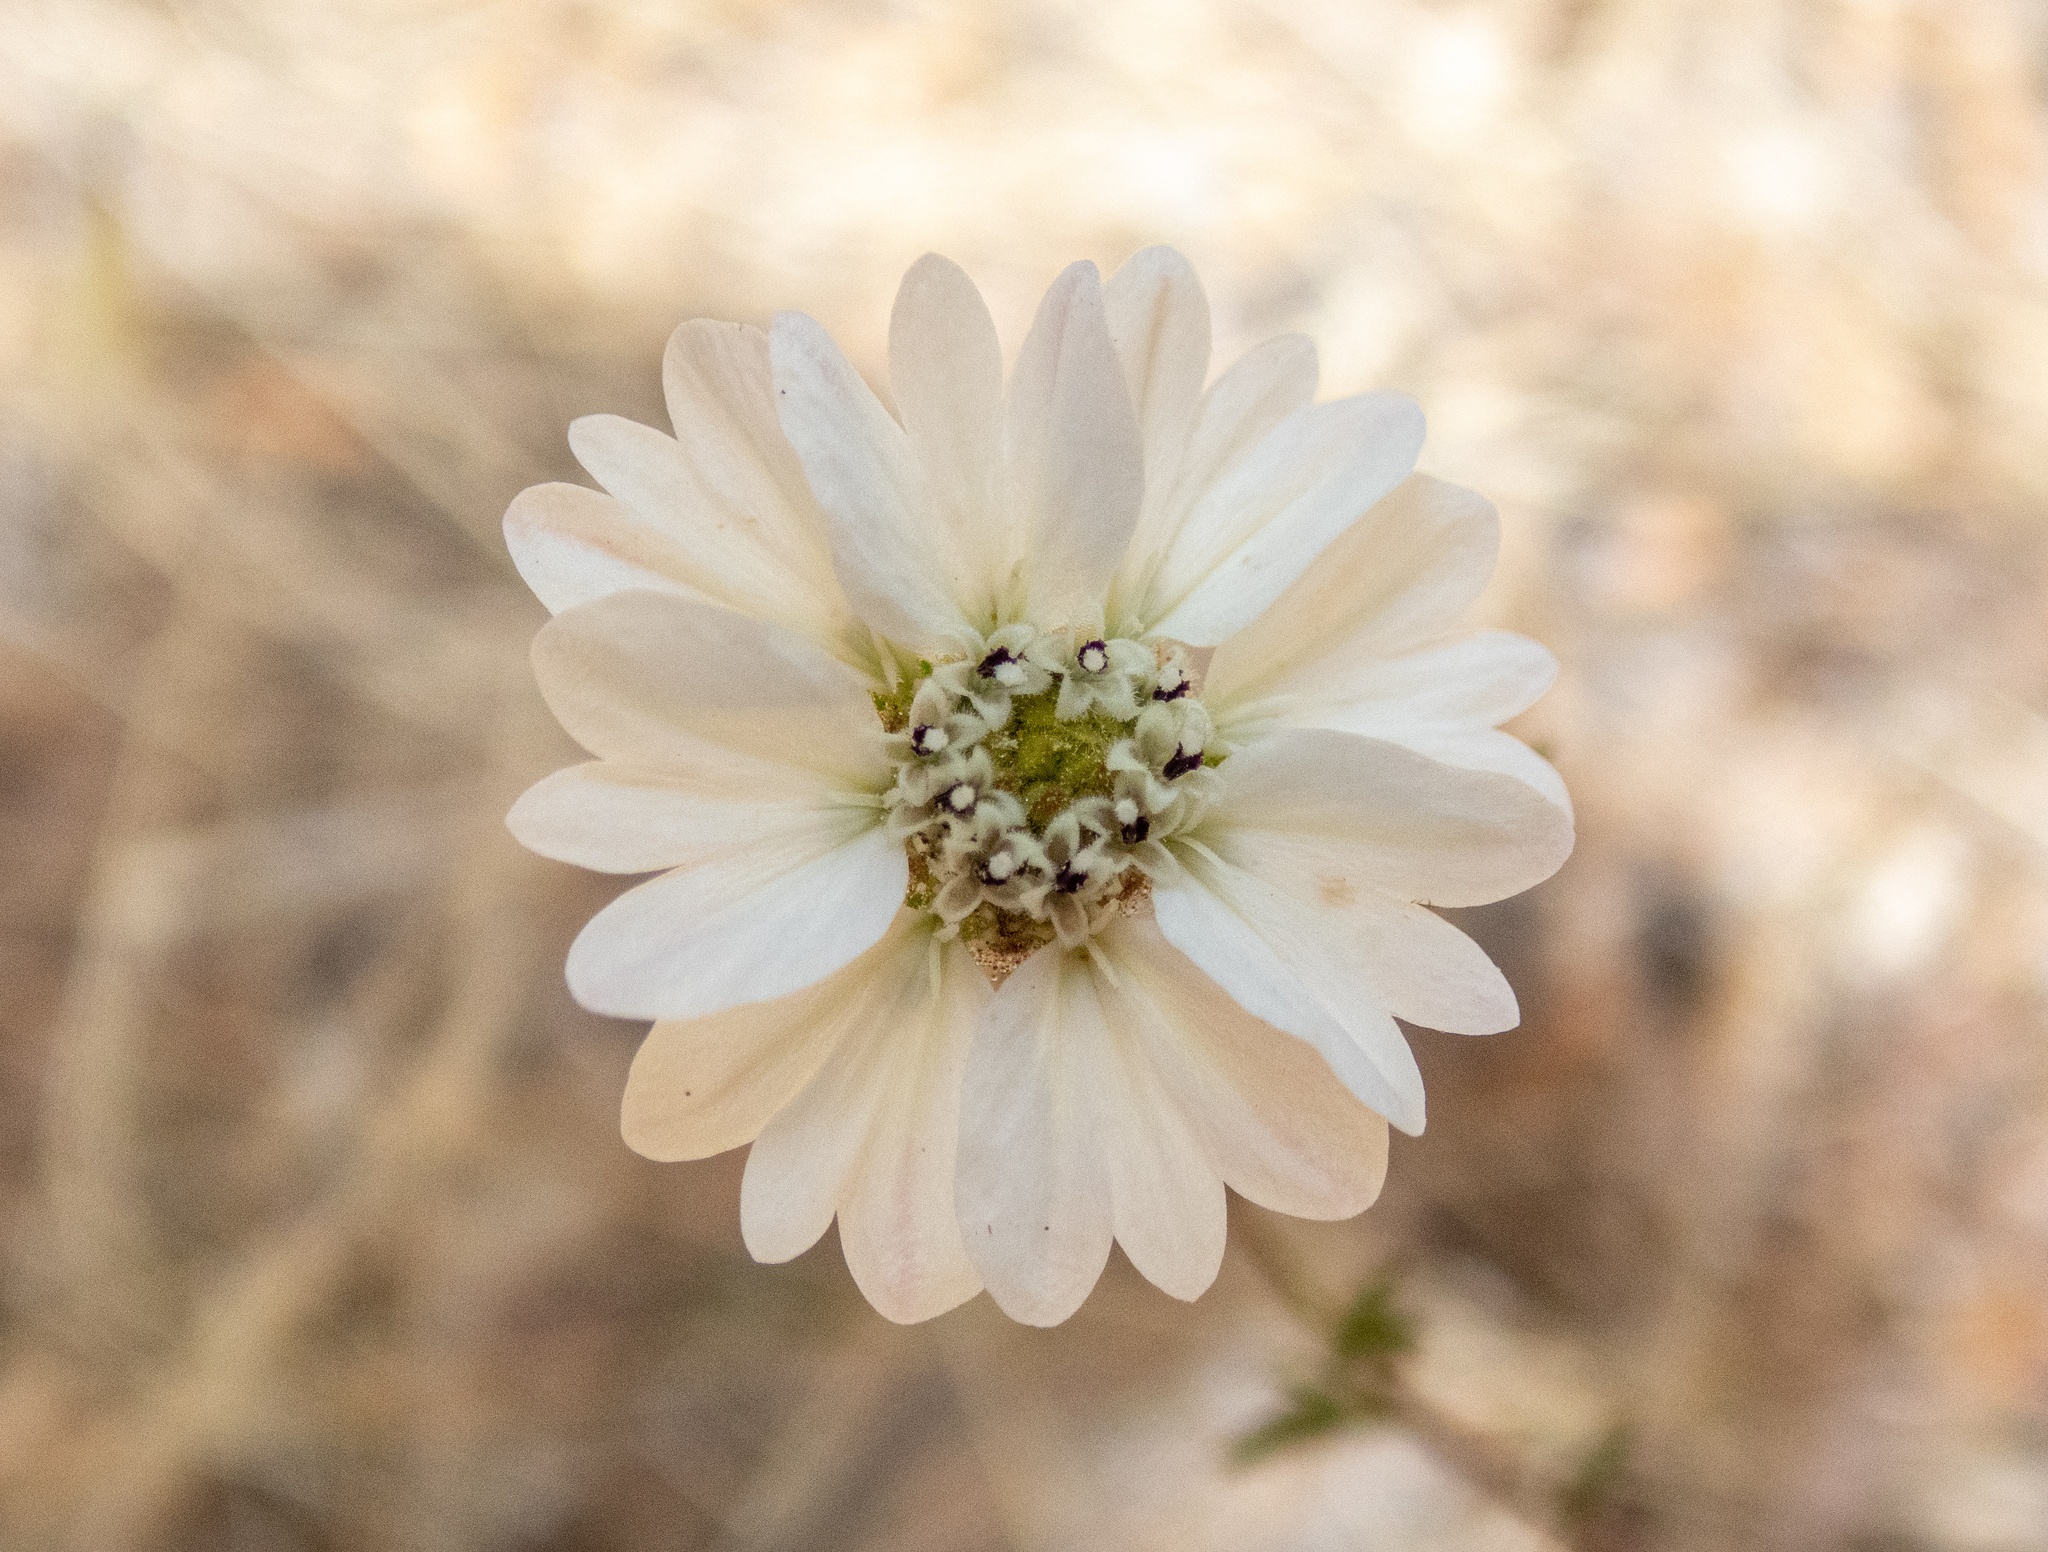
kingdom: Plantae
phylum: Tracheophyta
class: Magnoliopsida
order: Asterales
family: Asteraceae
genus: Hemizonia
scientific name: Hemizonia congesta
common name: Hayfield tarweed
